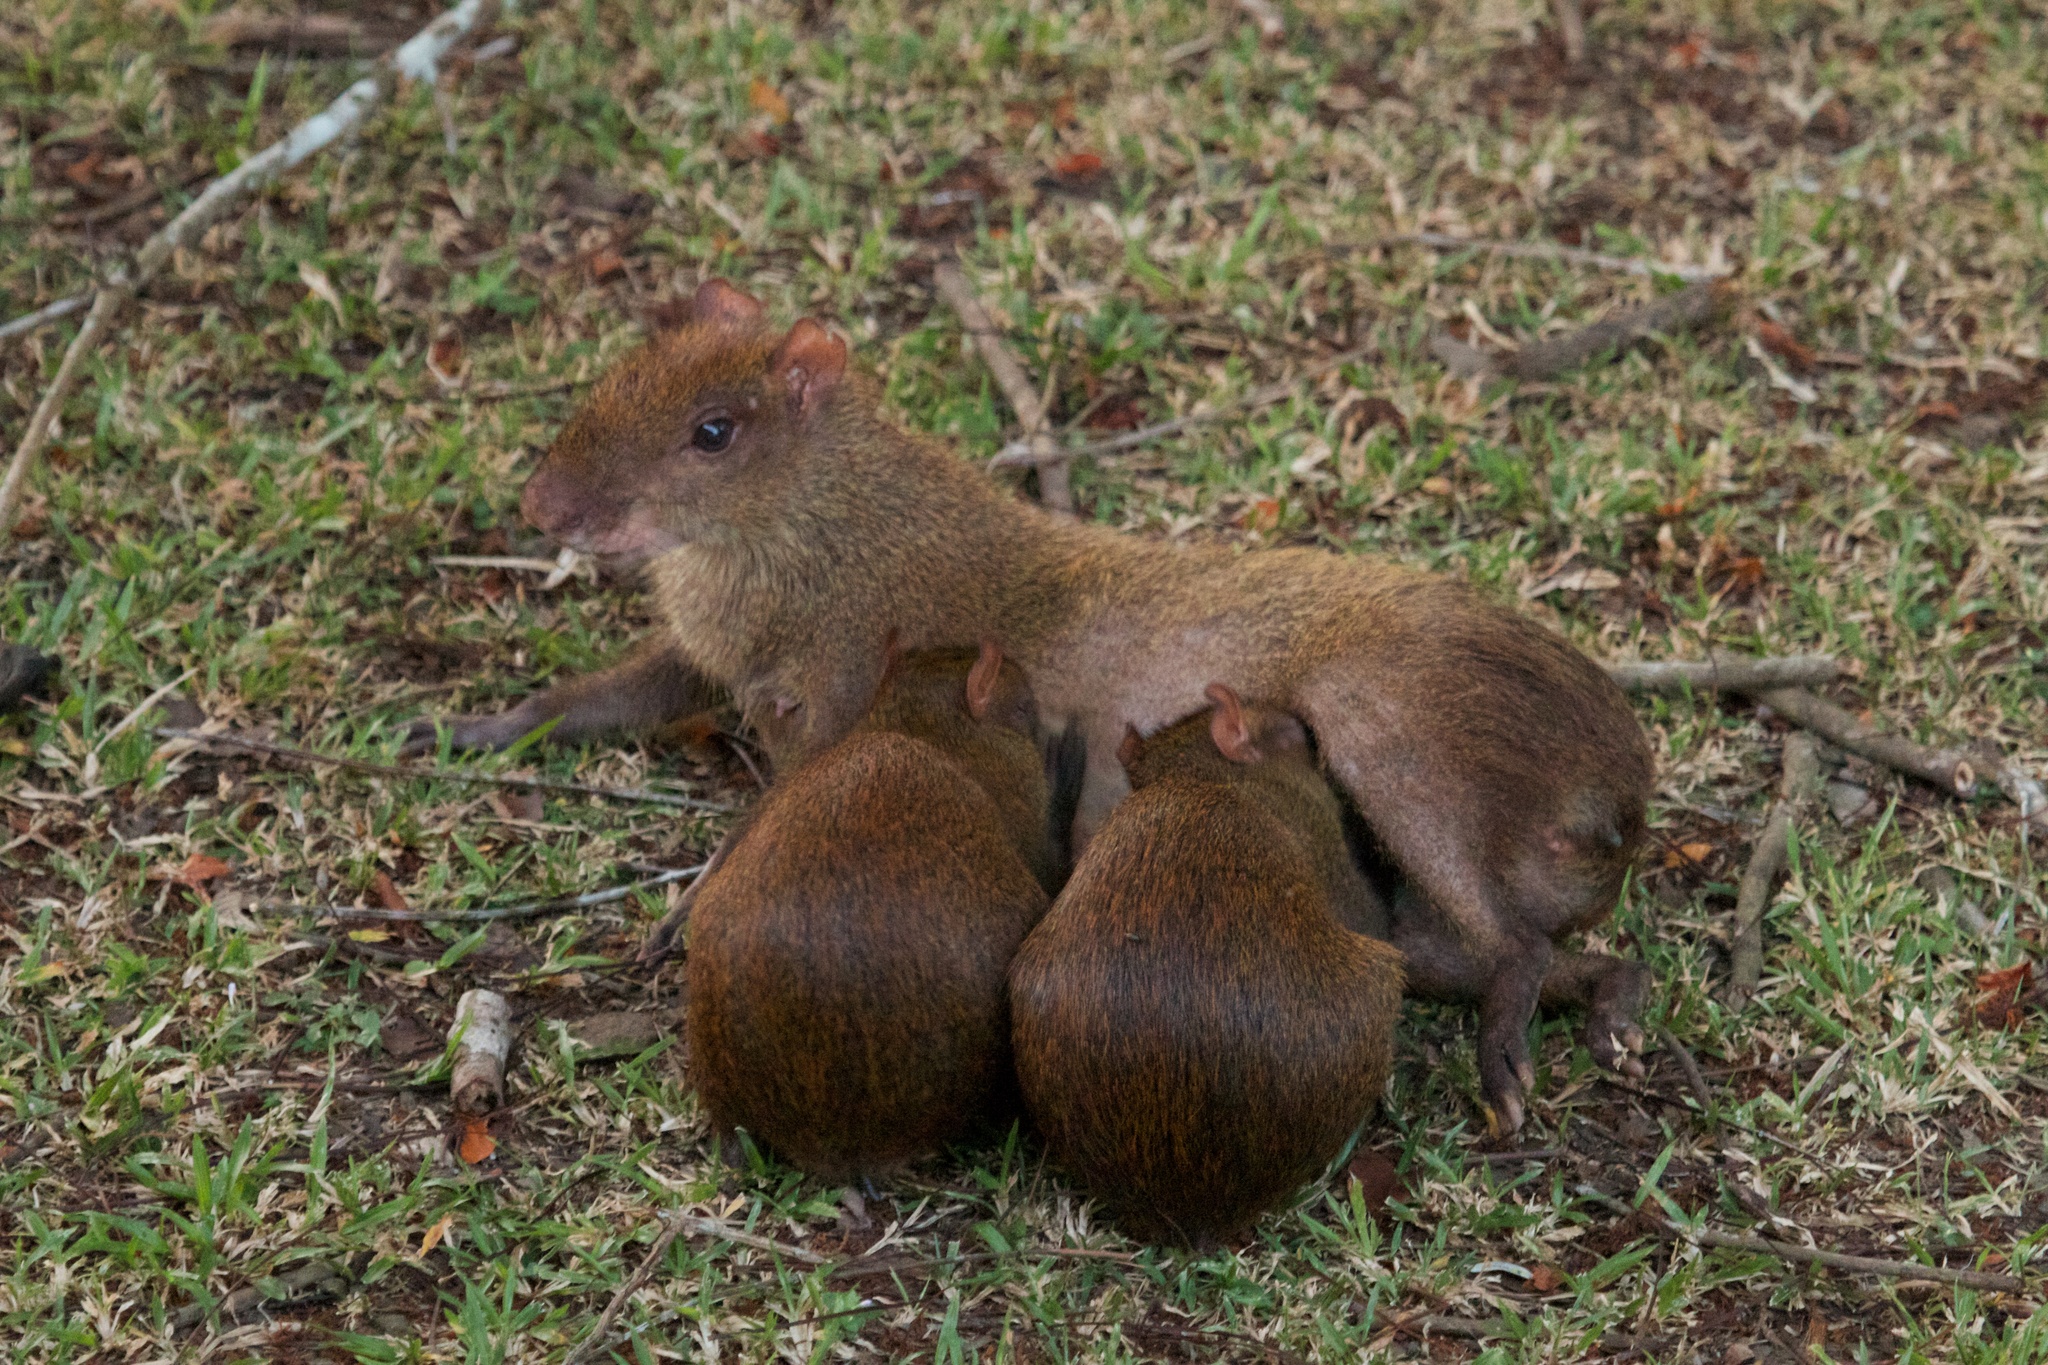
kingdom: Animalia
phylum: Chordata
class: Mammalia
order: Rodentia
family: Dasyproctidae
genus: Dasyprocta
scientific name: Dasyprocta punctata
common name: Central american agouti
